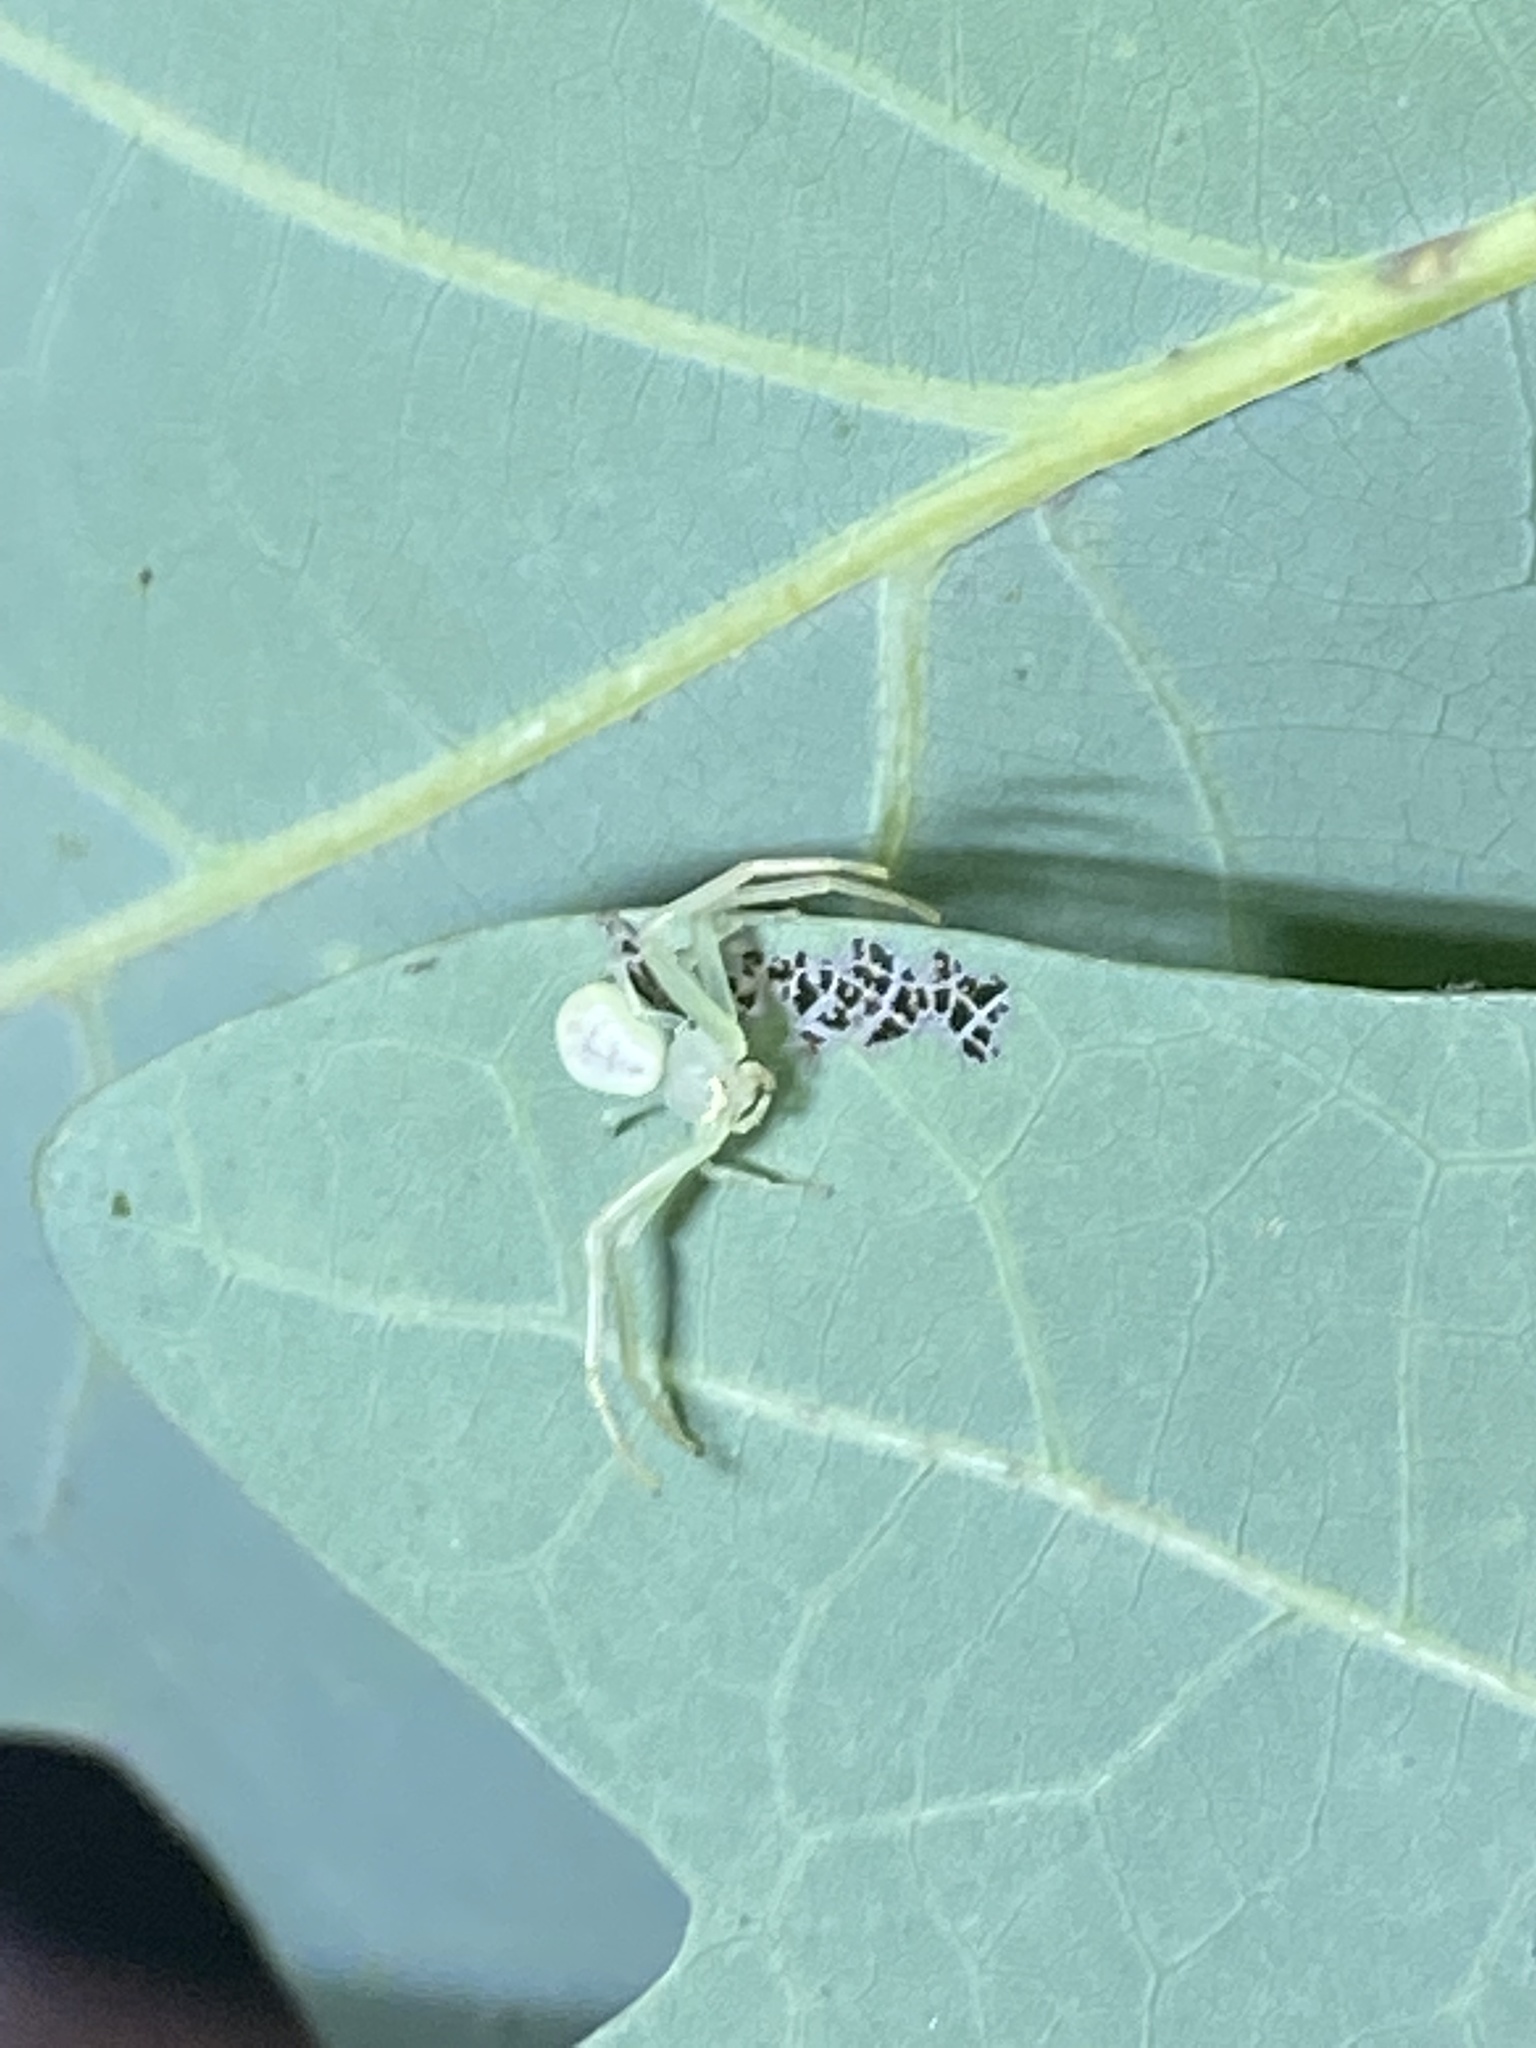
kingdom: Animalia
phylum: Arthropoda
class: Arachnida
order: Araneae
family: Thomisidae
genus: Misumessus
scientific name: Misumessus oblongus
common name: American green crab spider
